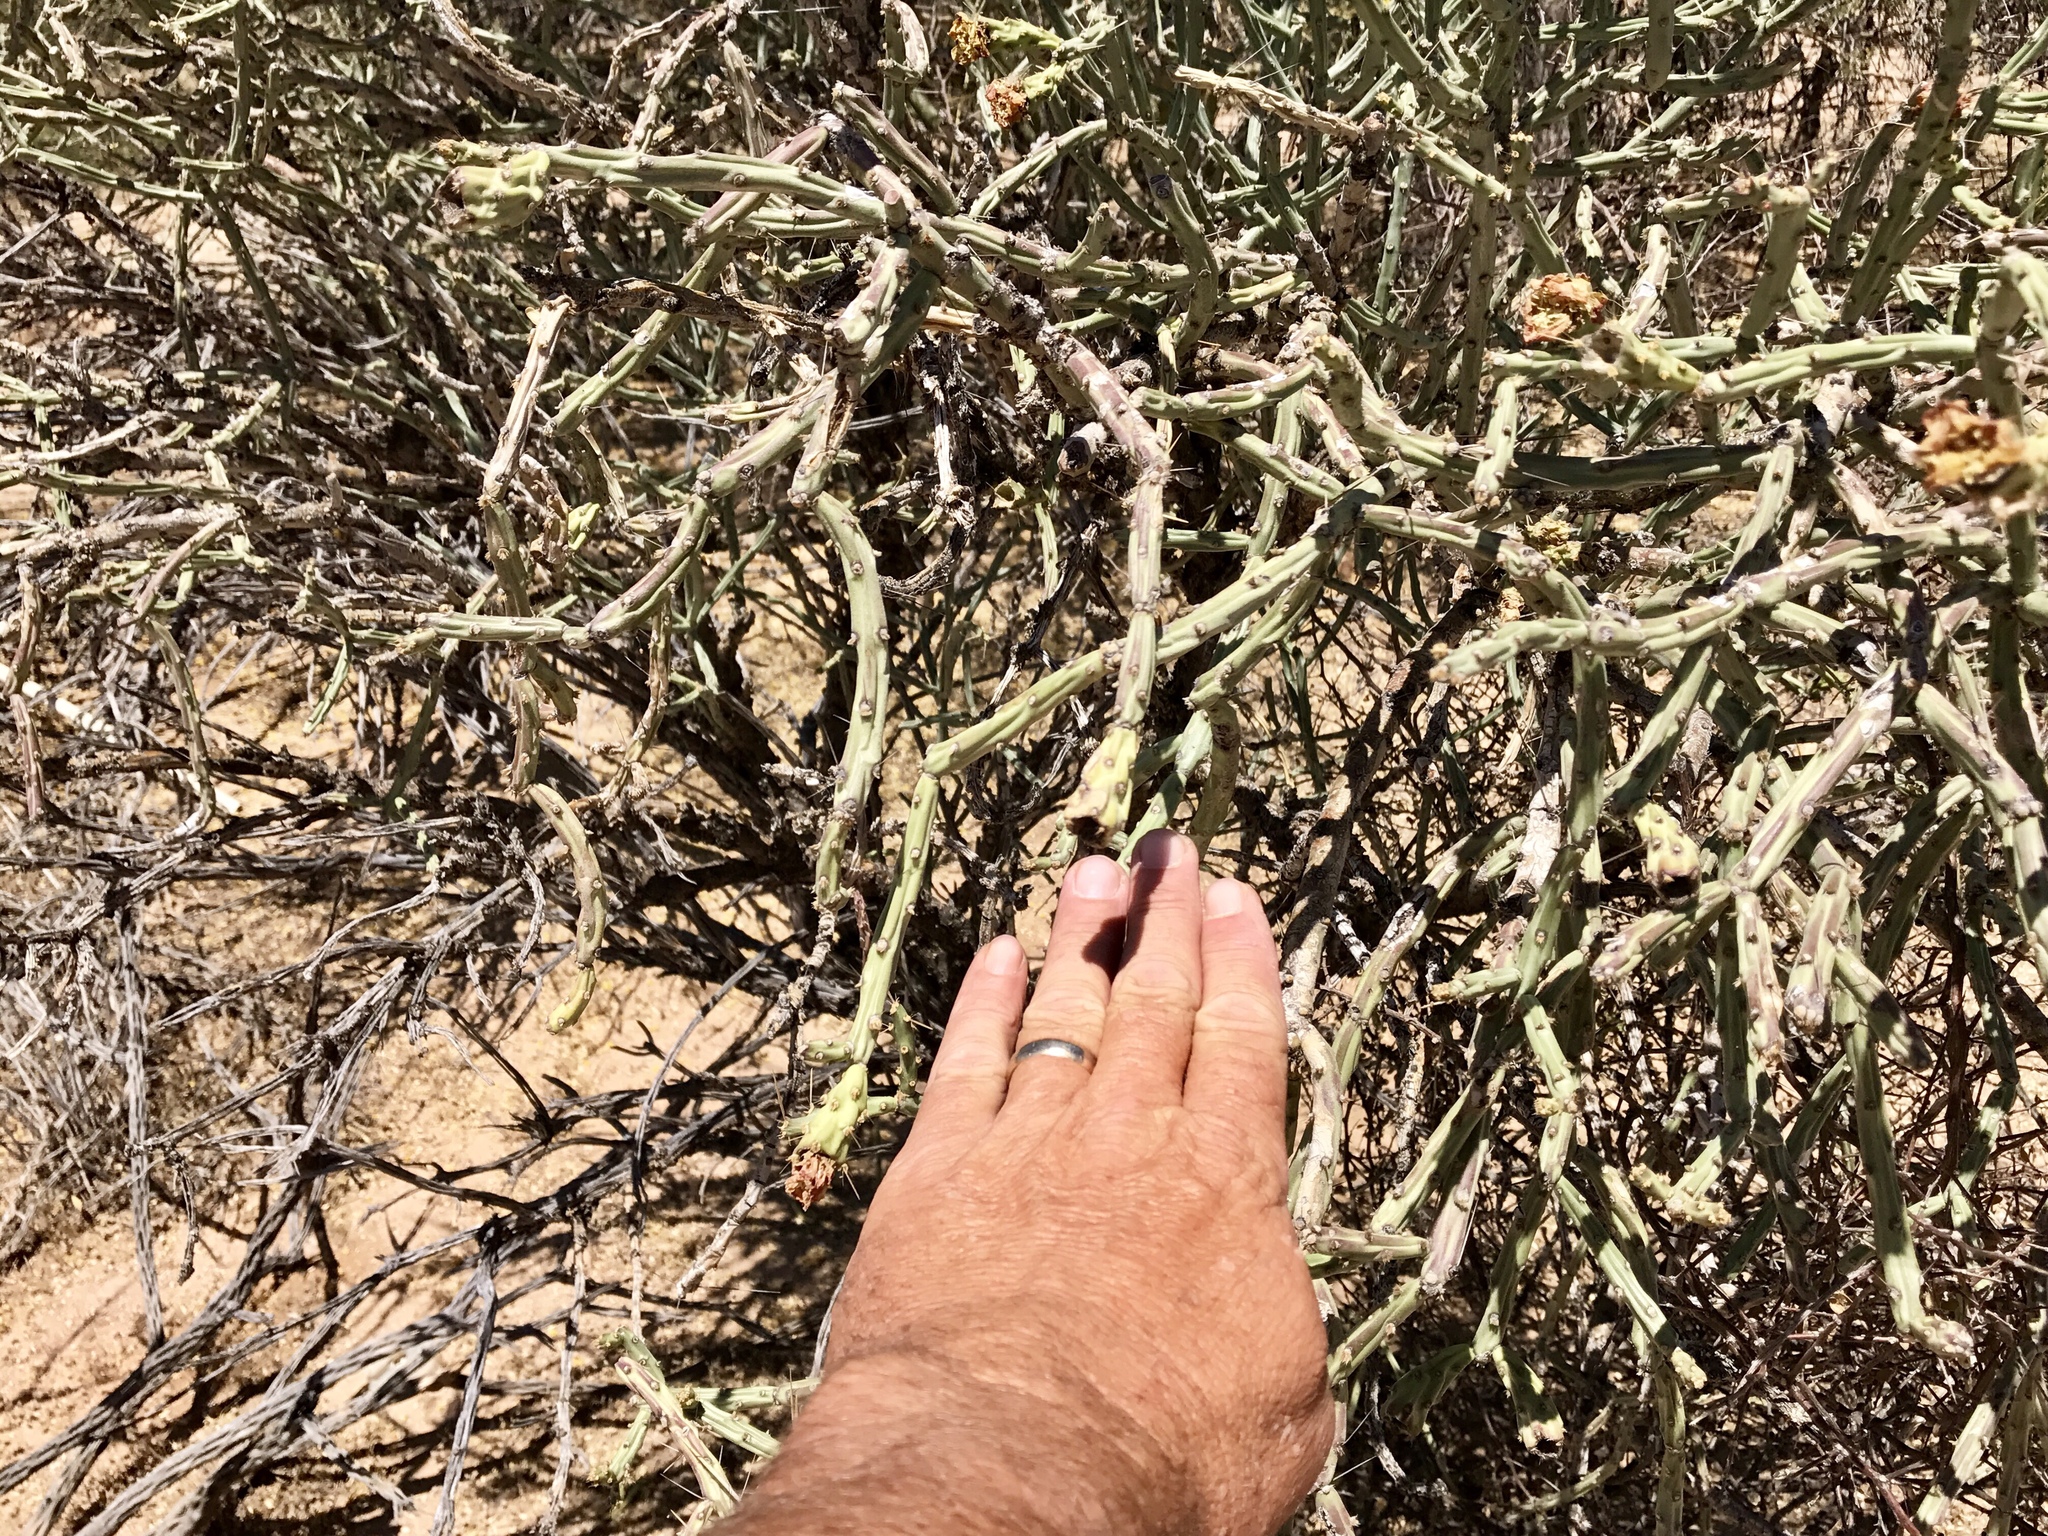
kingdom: Plantae
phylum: Tracheophyta
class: Magnoliopsida
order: Caryophyllales
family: Cactaceae
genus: Cylindropuntia
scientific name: Cylindropuntia arbuscula
